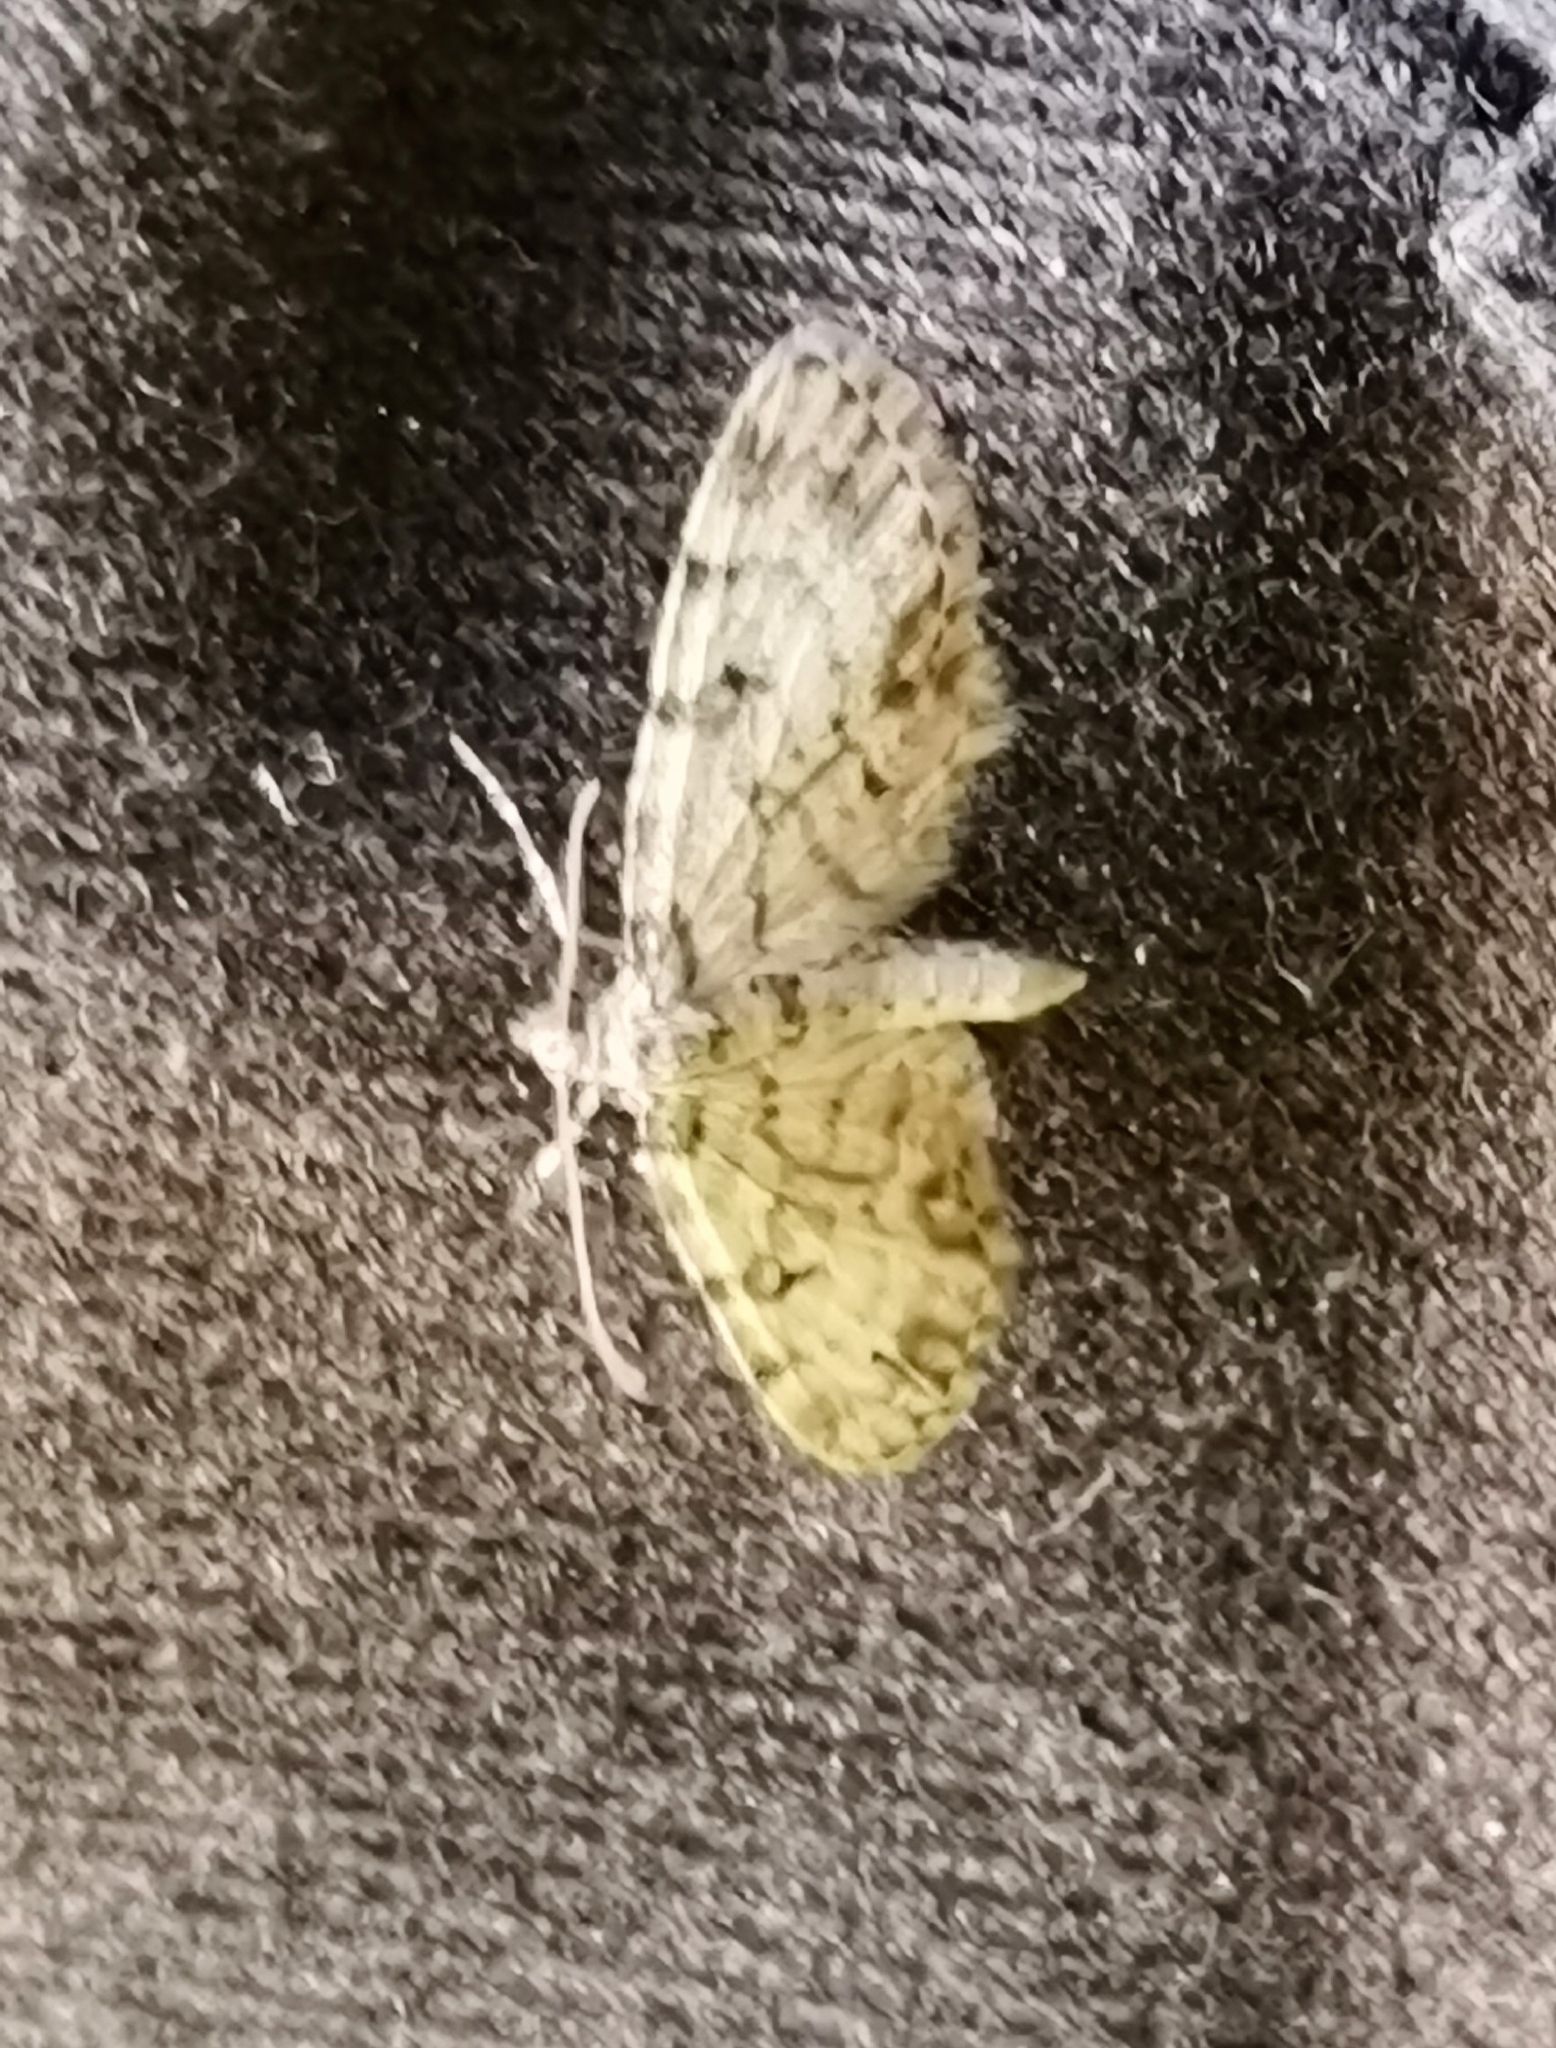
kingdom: Animalia
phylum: Arthropoda
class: Insecta
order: Lepidoptera
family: Geometridae
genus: Eupithecia
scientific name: Eupithecia tantillaria
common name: Dwarf pug
